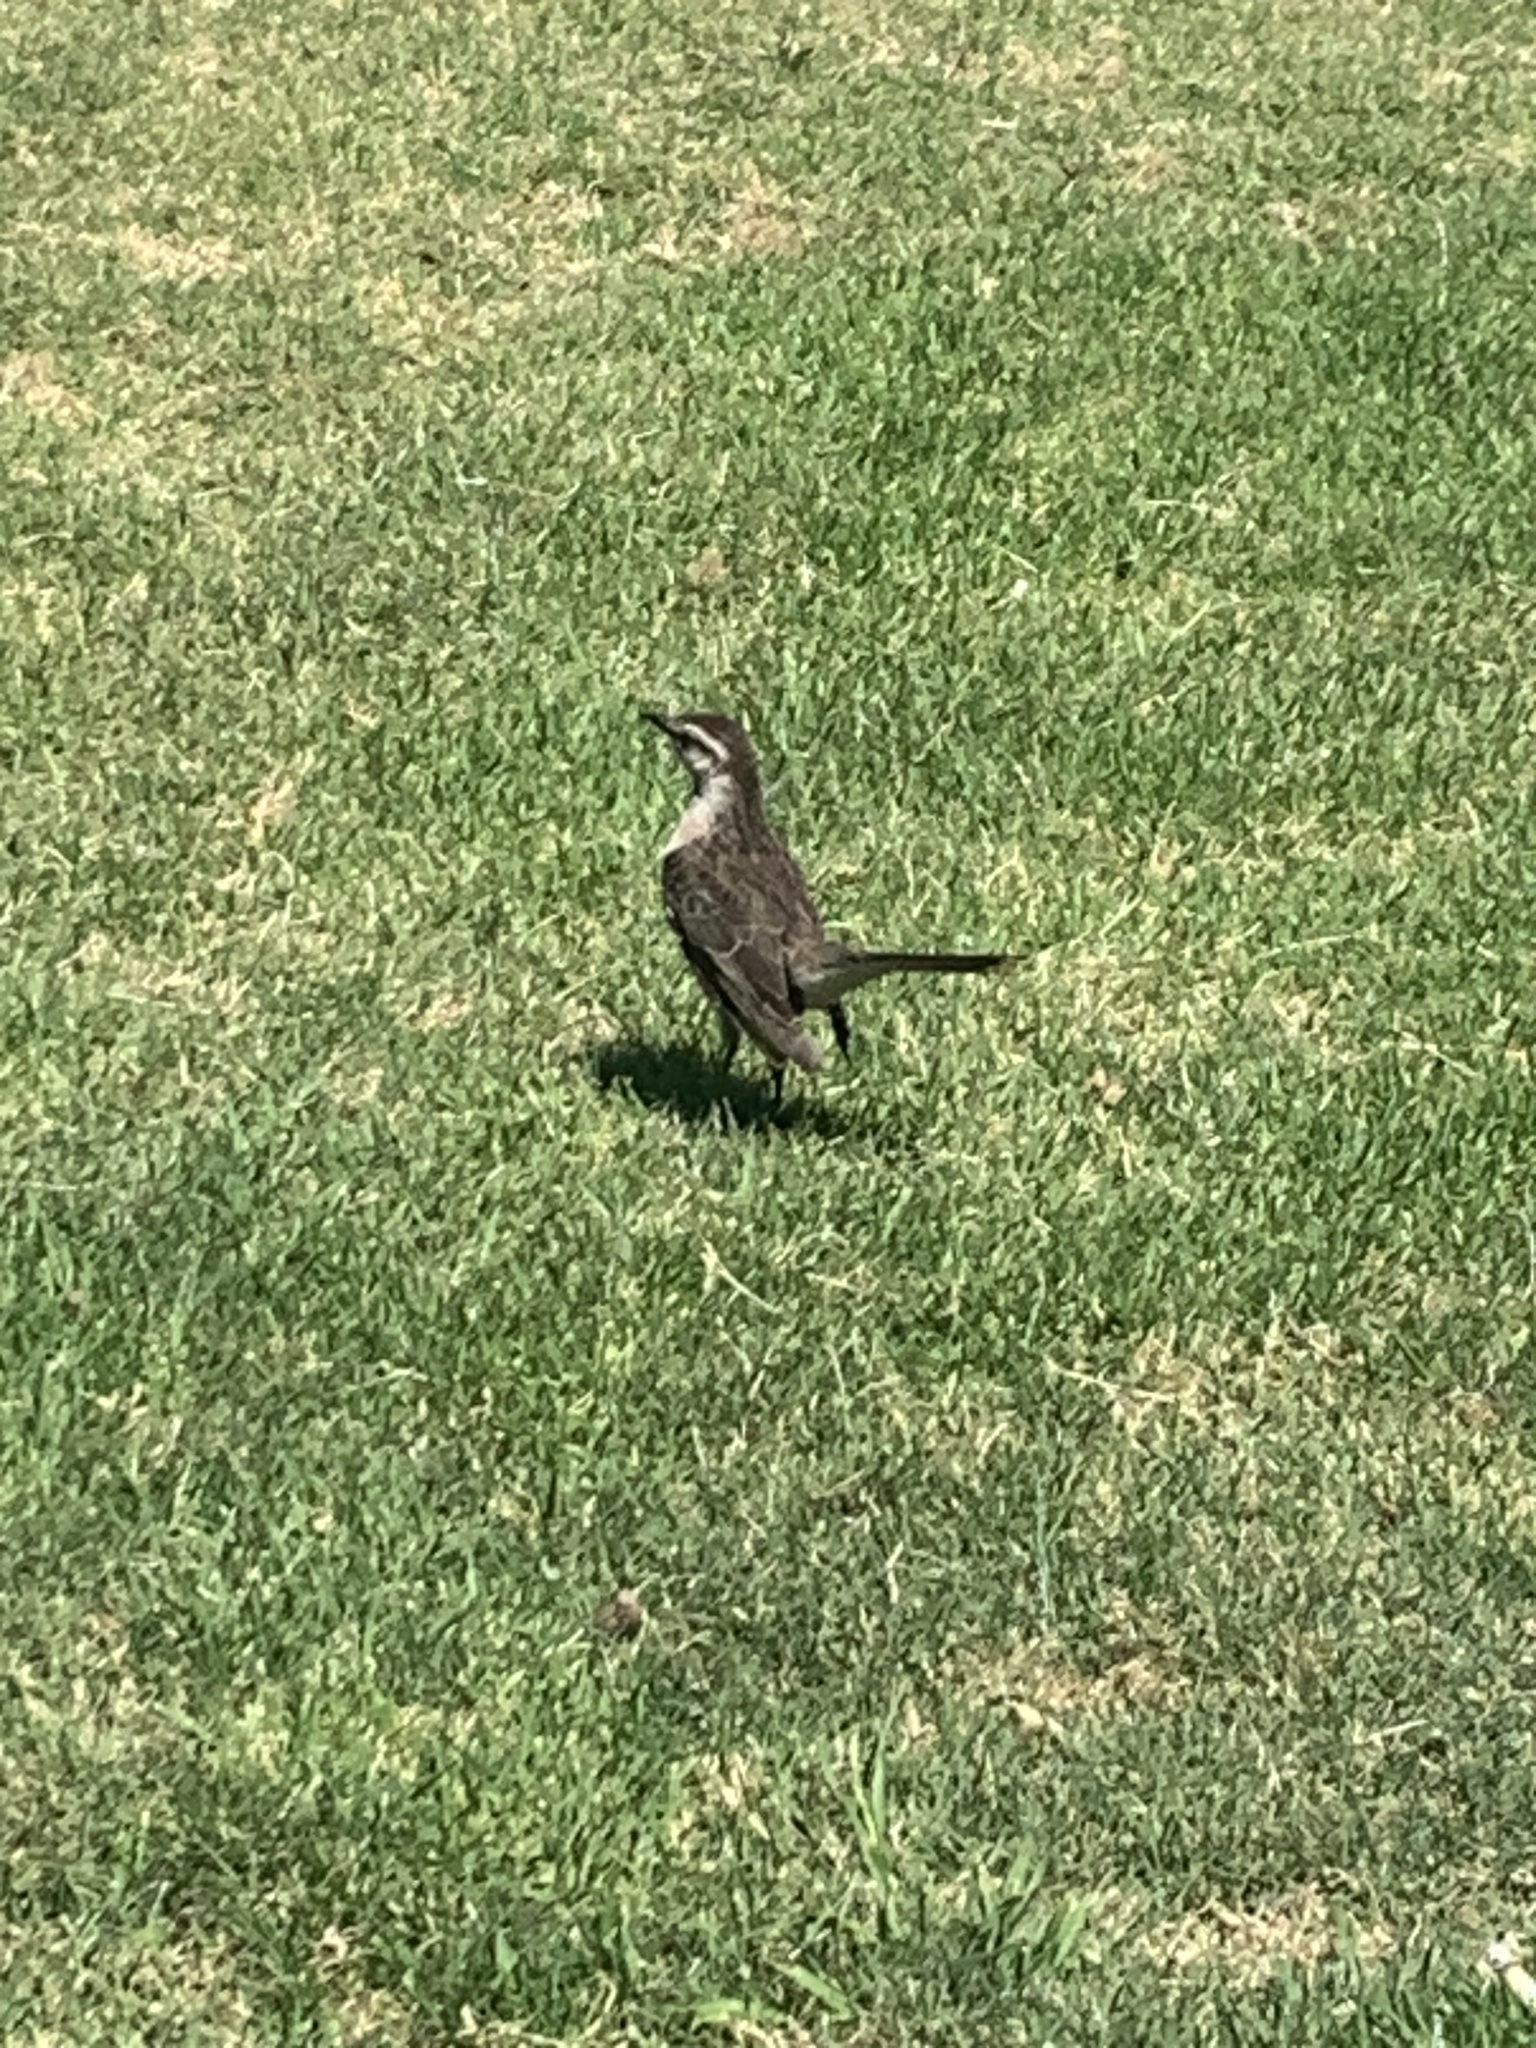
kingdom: Animalia
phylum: Chordata
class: Aves
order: Passeriformes
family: Mimidae
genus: Mimus
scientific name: Mimus saturninus
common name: Chalk-browed mockingbird
